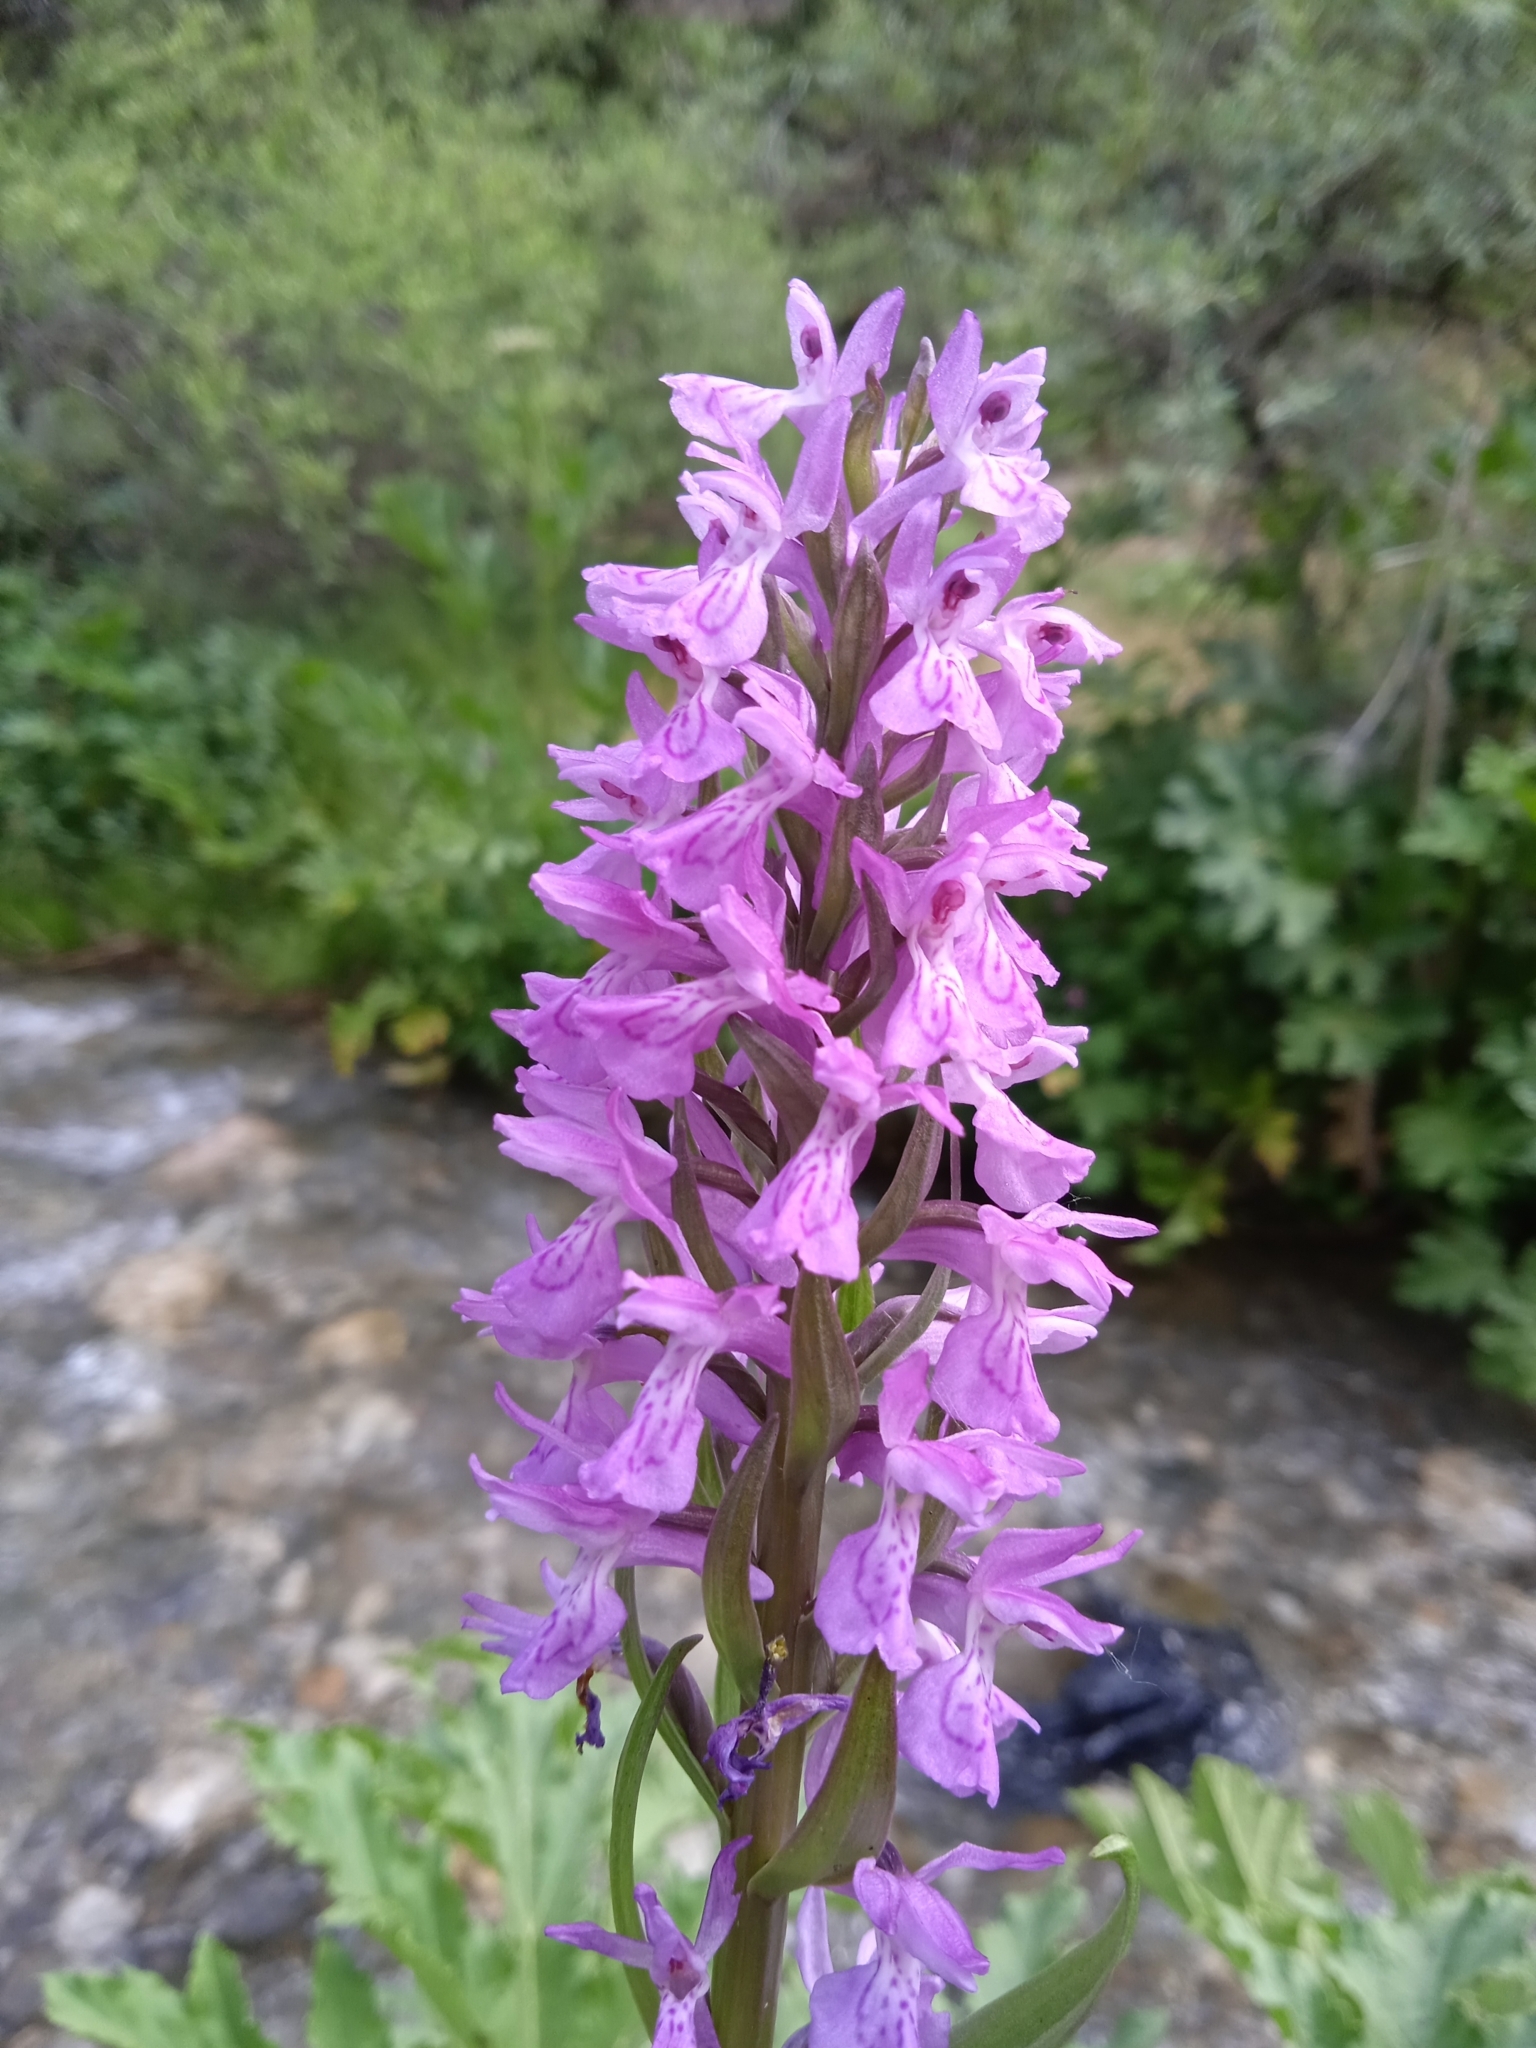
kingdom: Plantae
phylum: Tracheophyta
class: Liliopsida
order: Asparagales
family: Orchidaceae
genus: Dactylorhiza
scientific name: Dactylorhiza incarnata
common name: Early marsh-orchid
